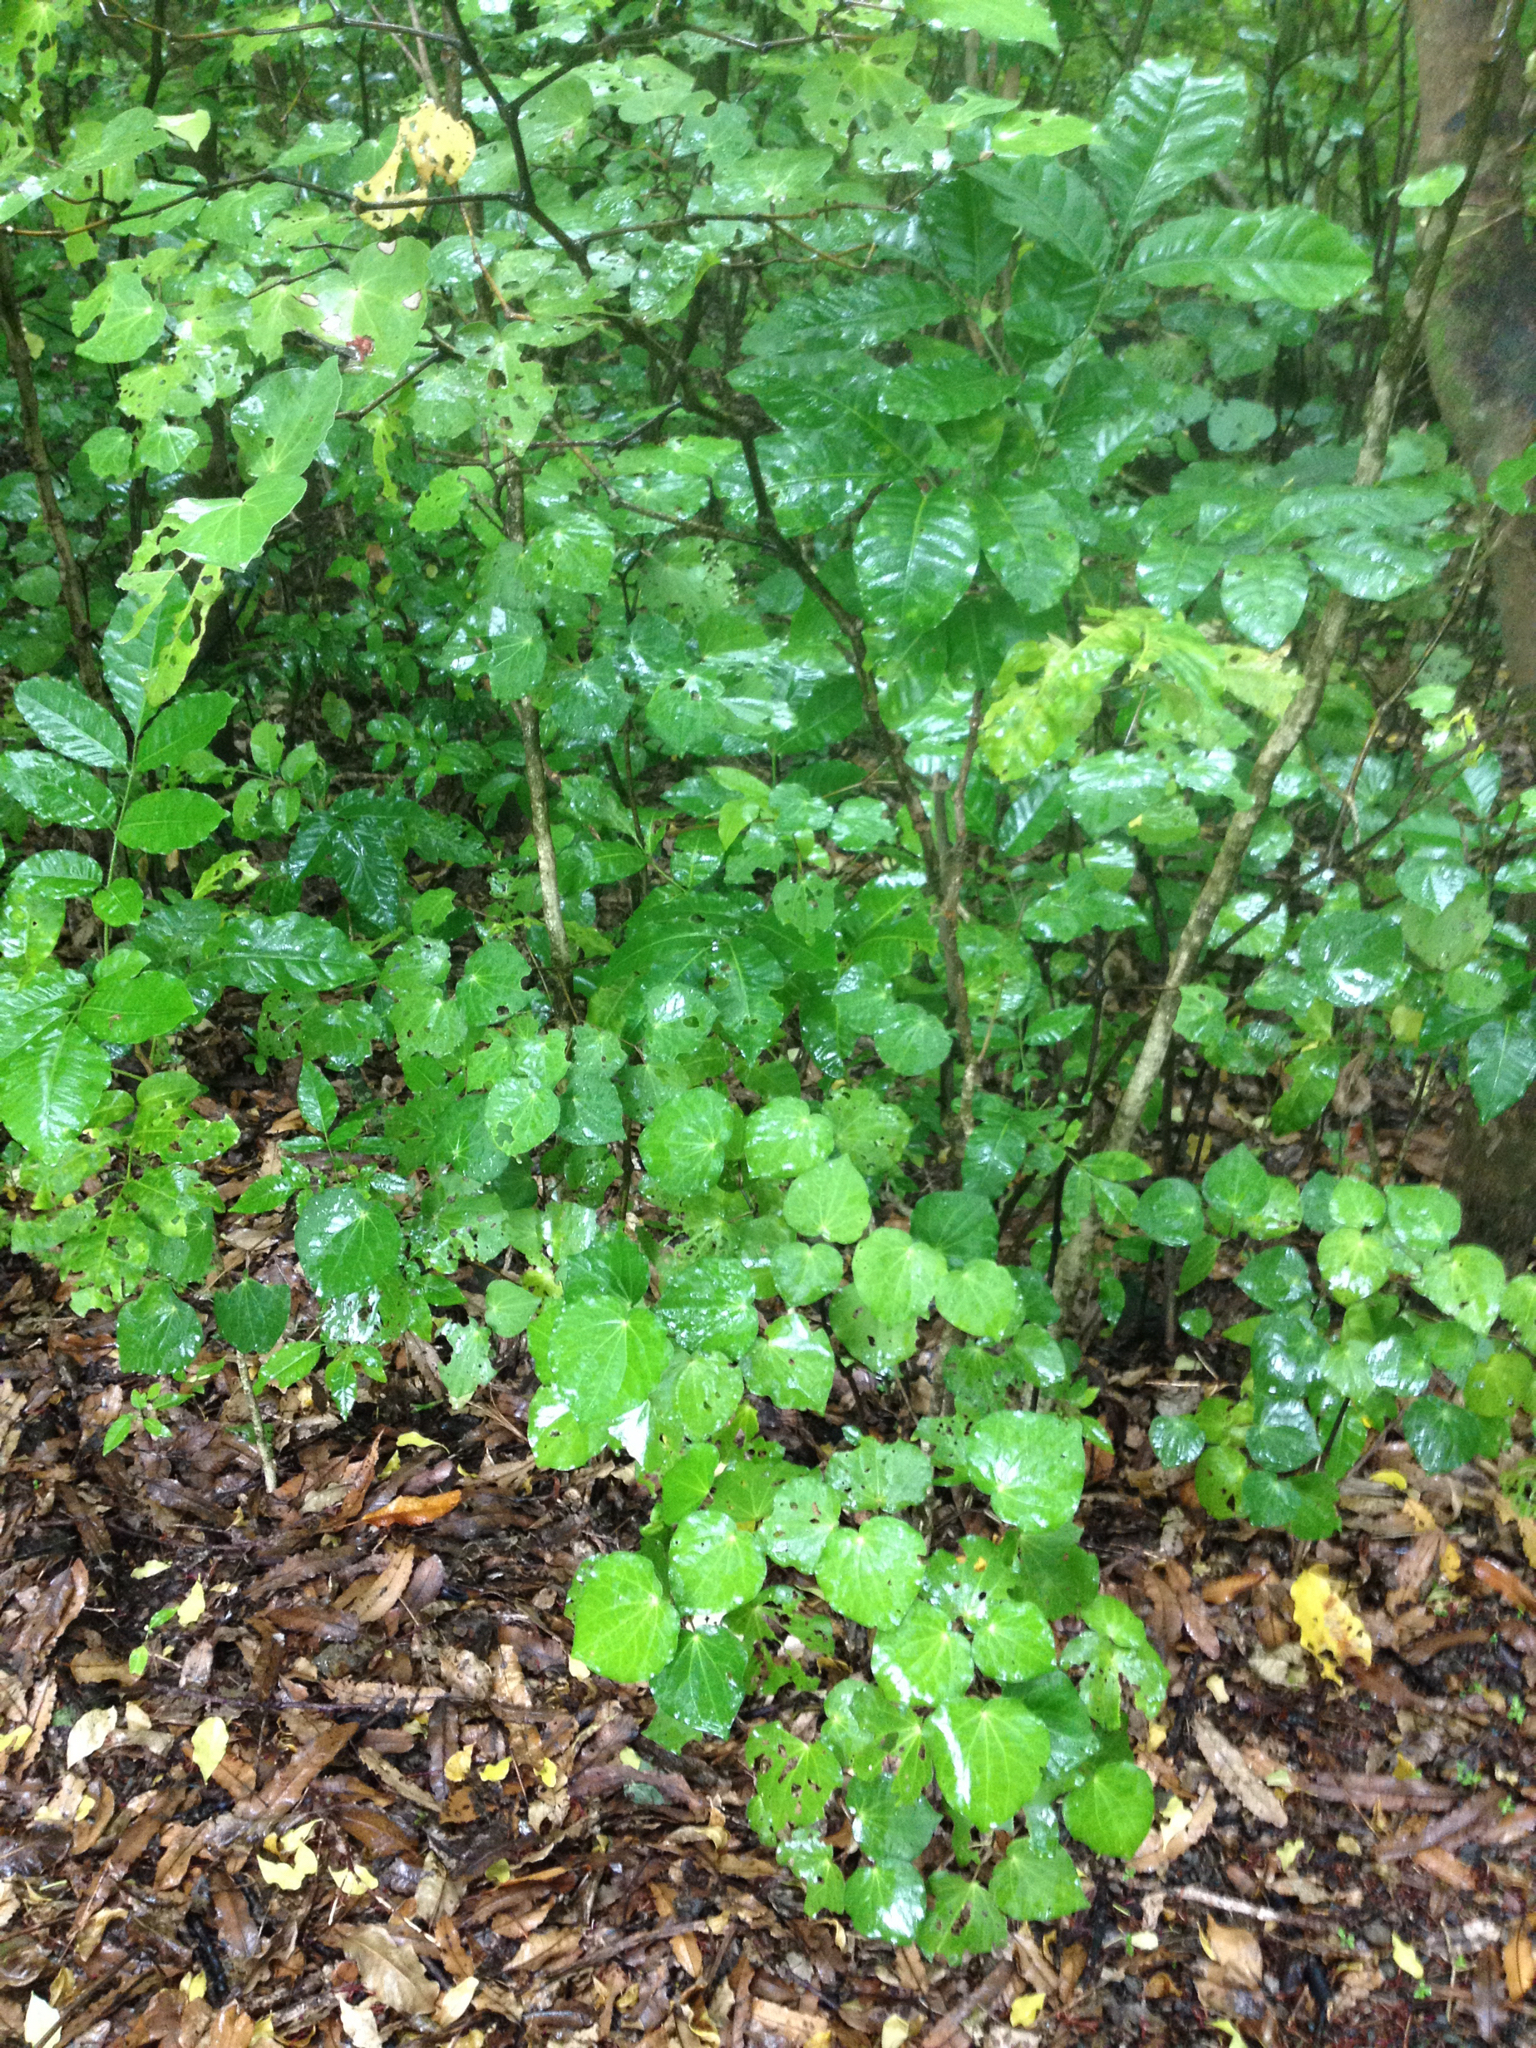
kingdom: Plantae
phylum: Tracheophyta
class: Magnoliopsida
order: Piperales
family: Piperaceae
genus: Macropiper
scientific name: Macropiper excelsum
